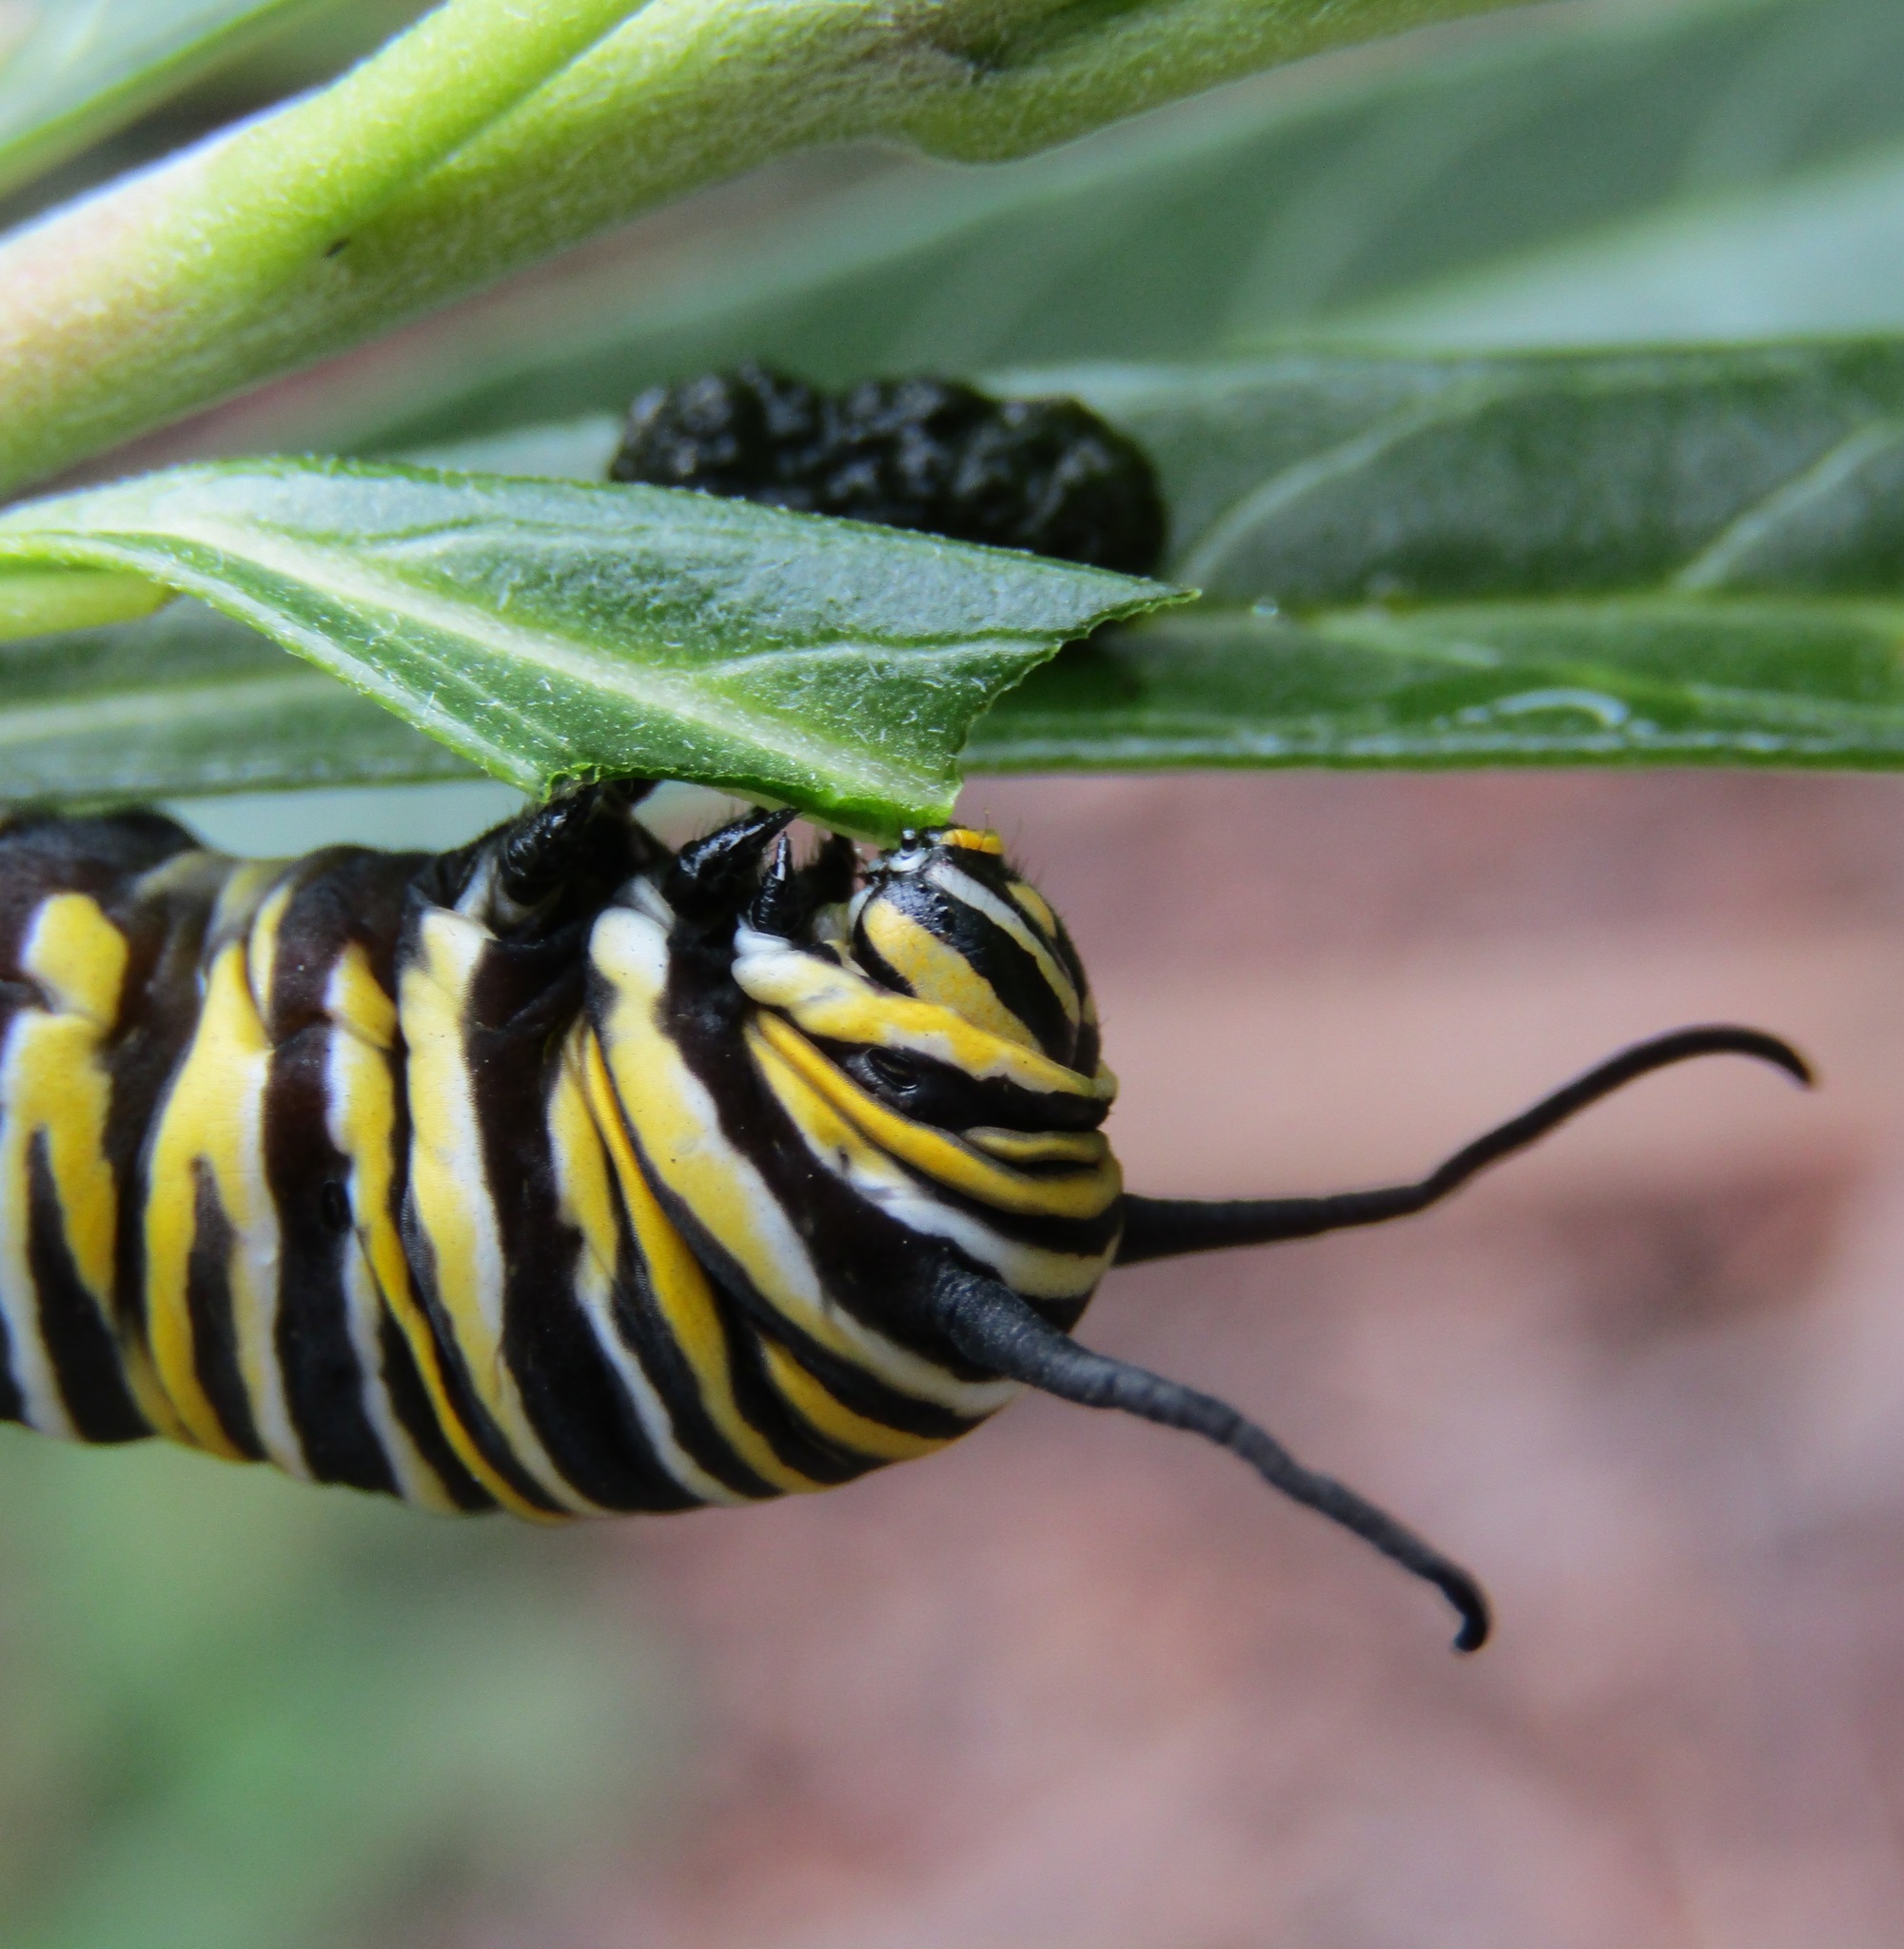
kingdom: Animalia
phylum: Arthropoda
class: Insecta
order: Lepidoptera
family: Nymphalidae
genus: Danaus
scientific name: Danaus plexippus
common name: Monarch
